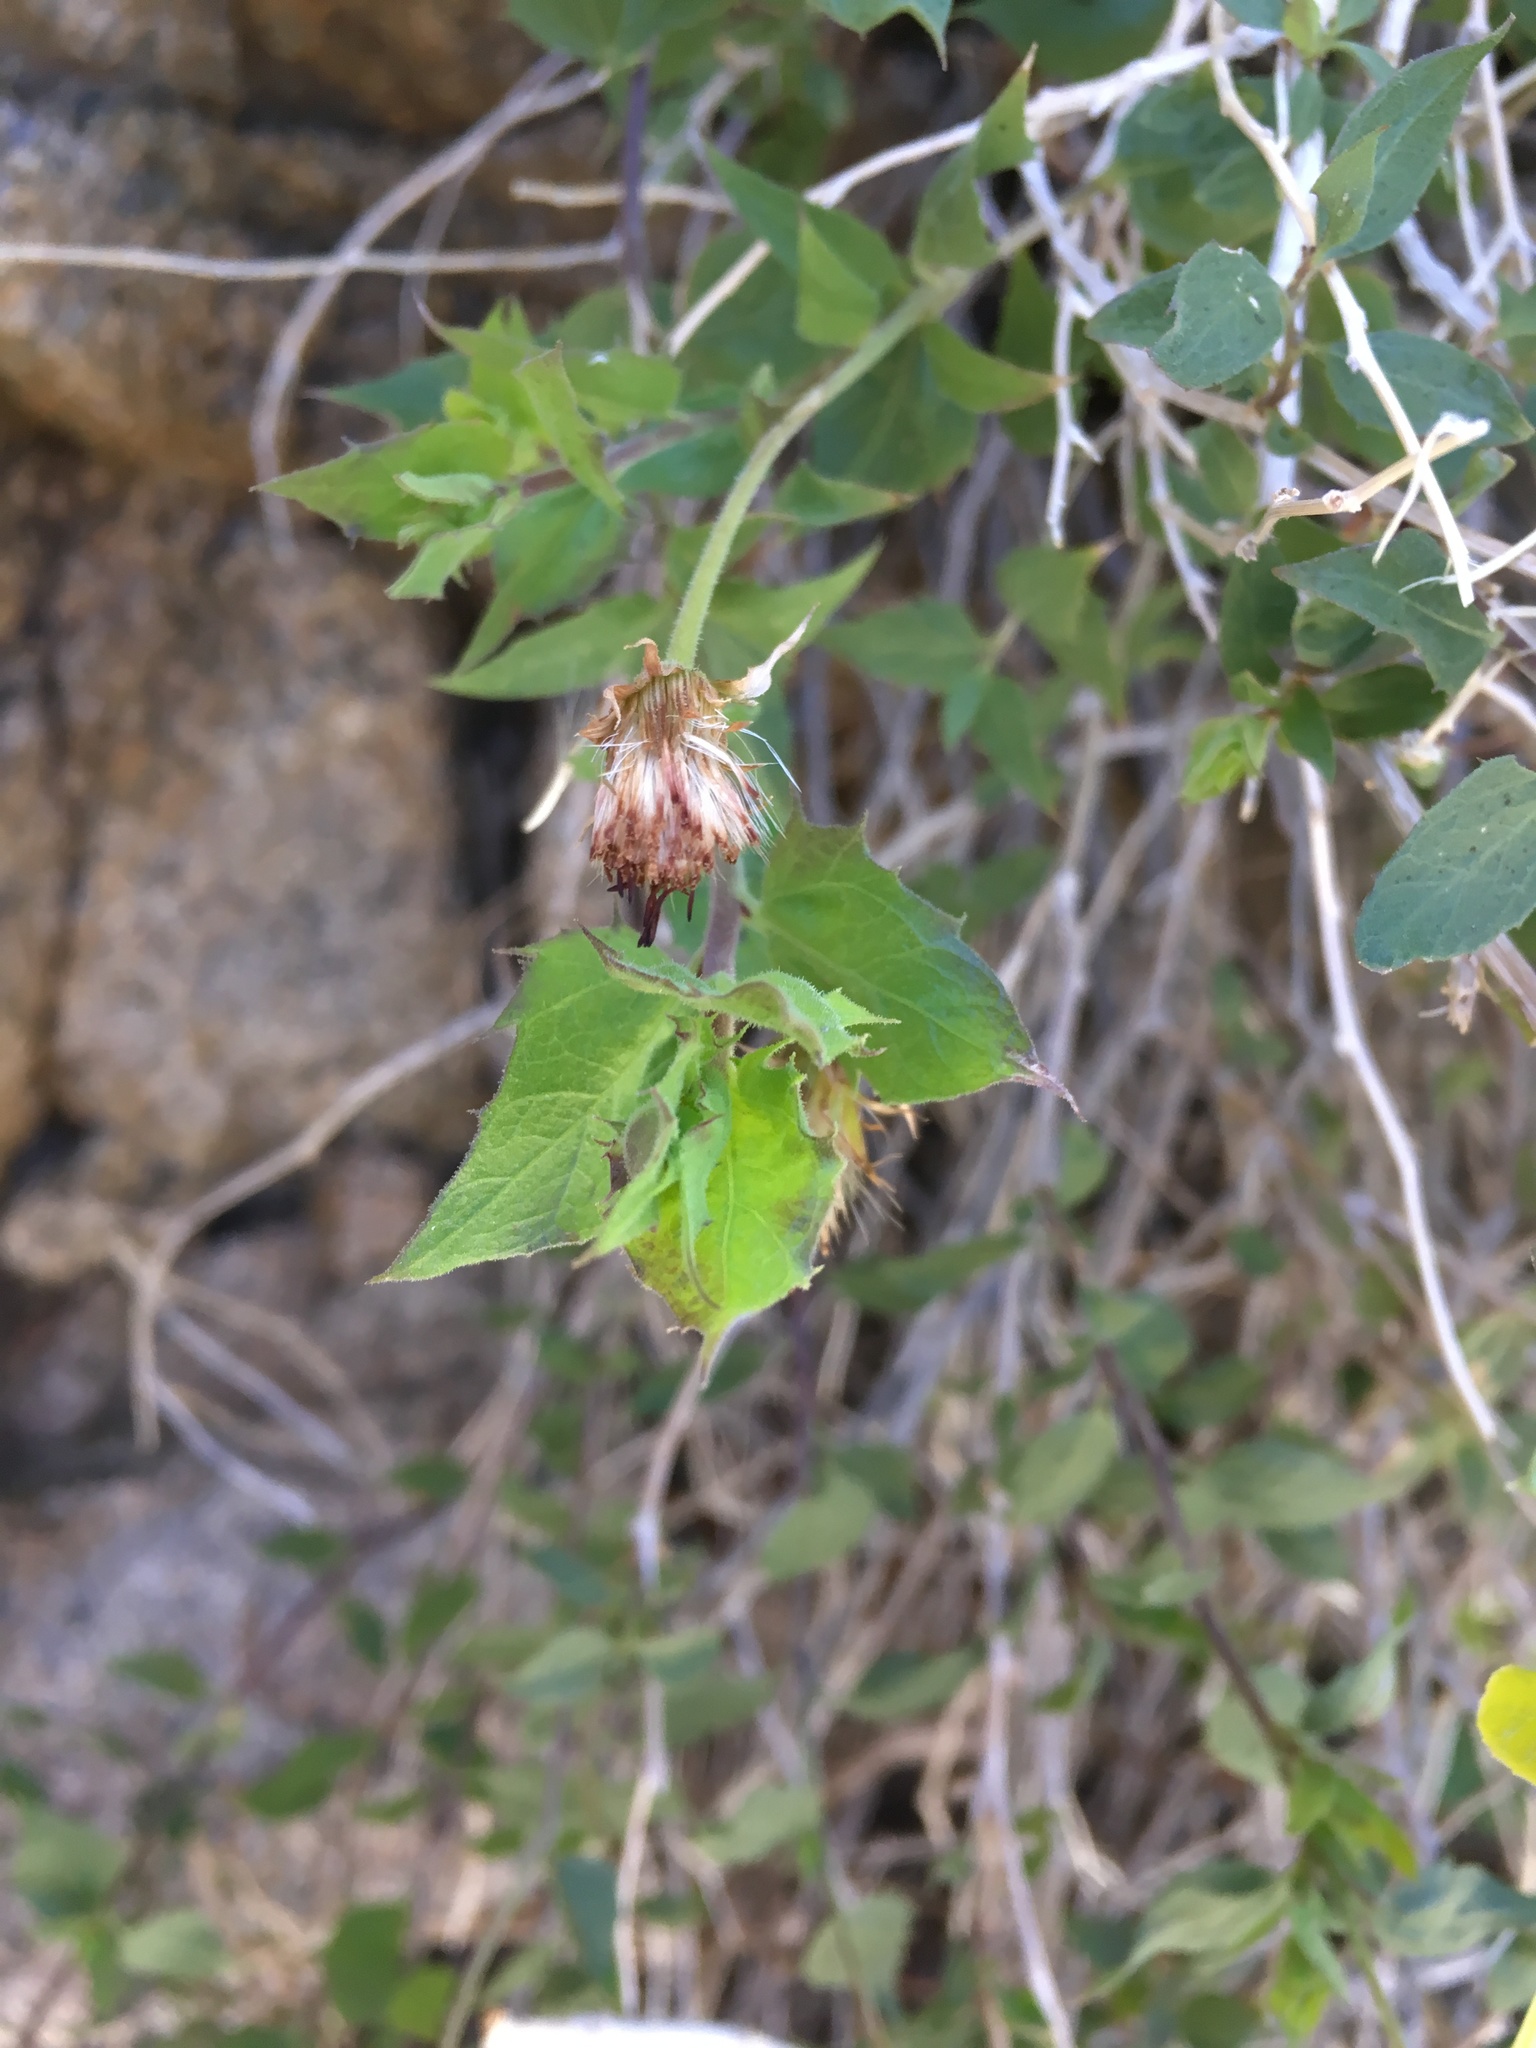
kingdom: Plantae
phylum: Tracheophyta
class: Magnoliopsida
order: Asterales
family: Asteraceae
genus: Brickellia
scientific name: Brickellia atractyloides
